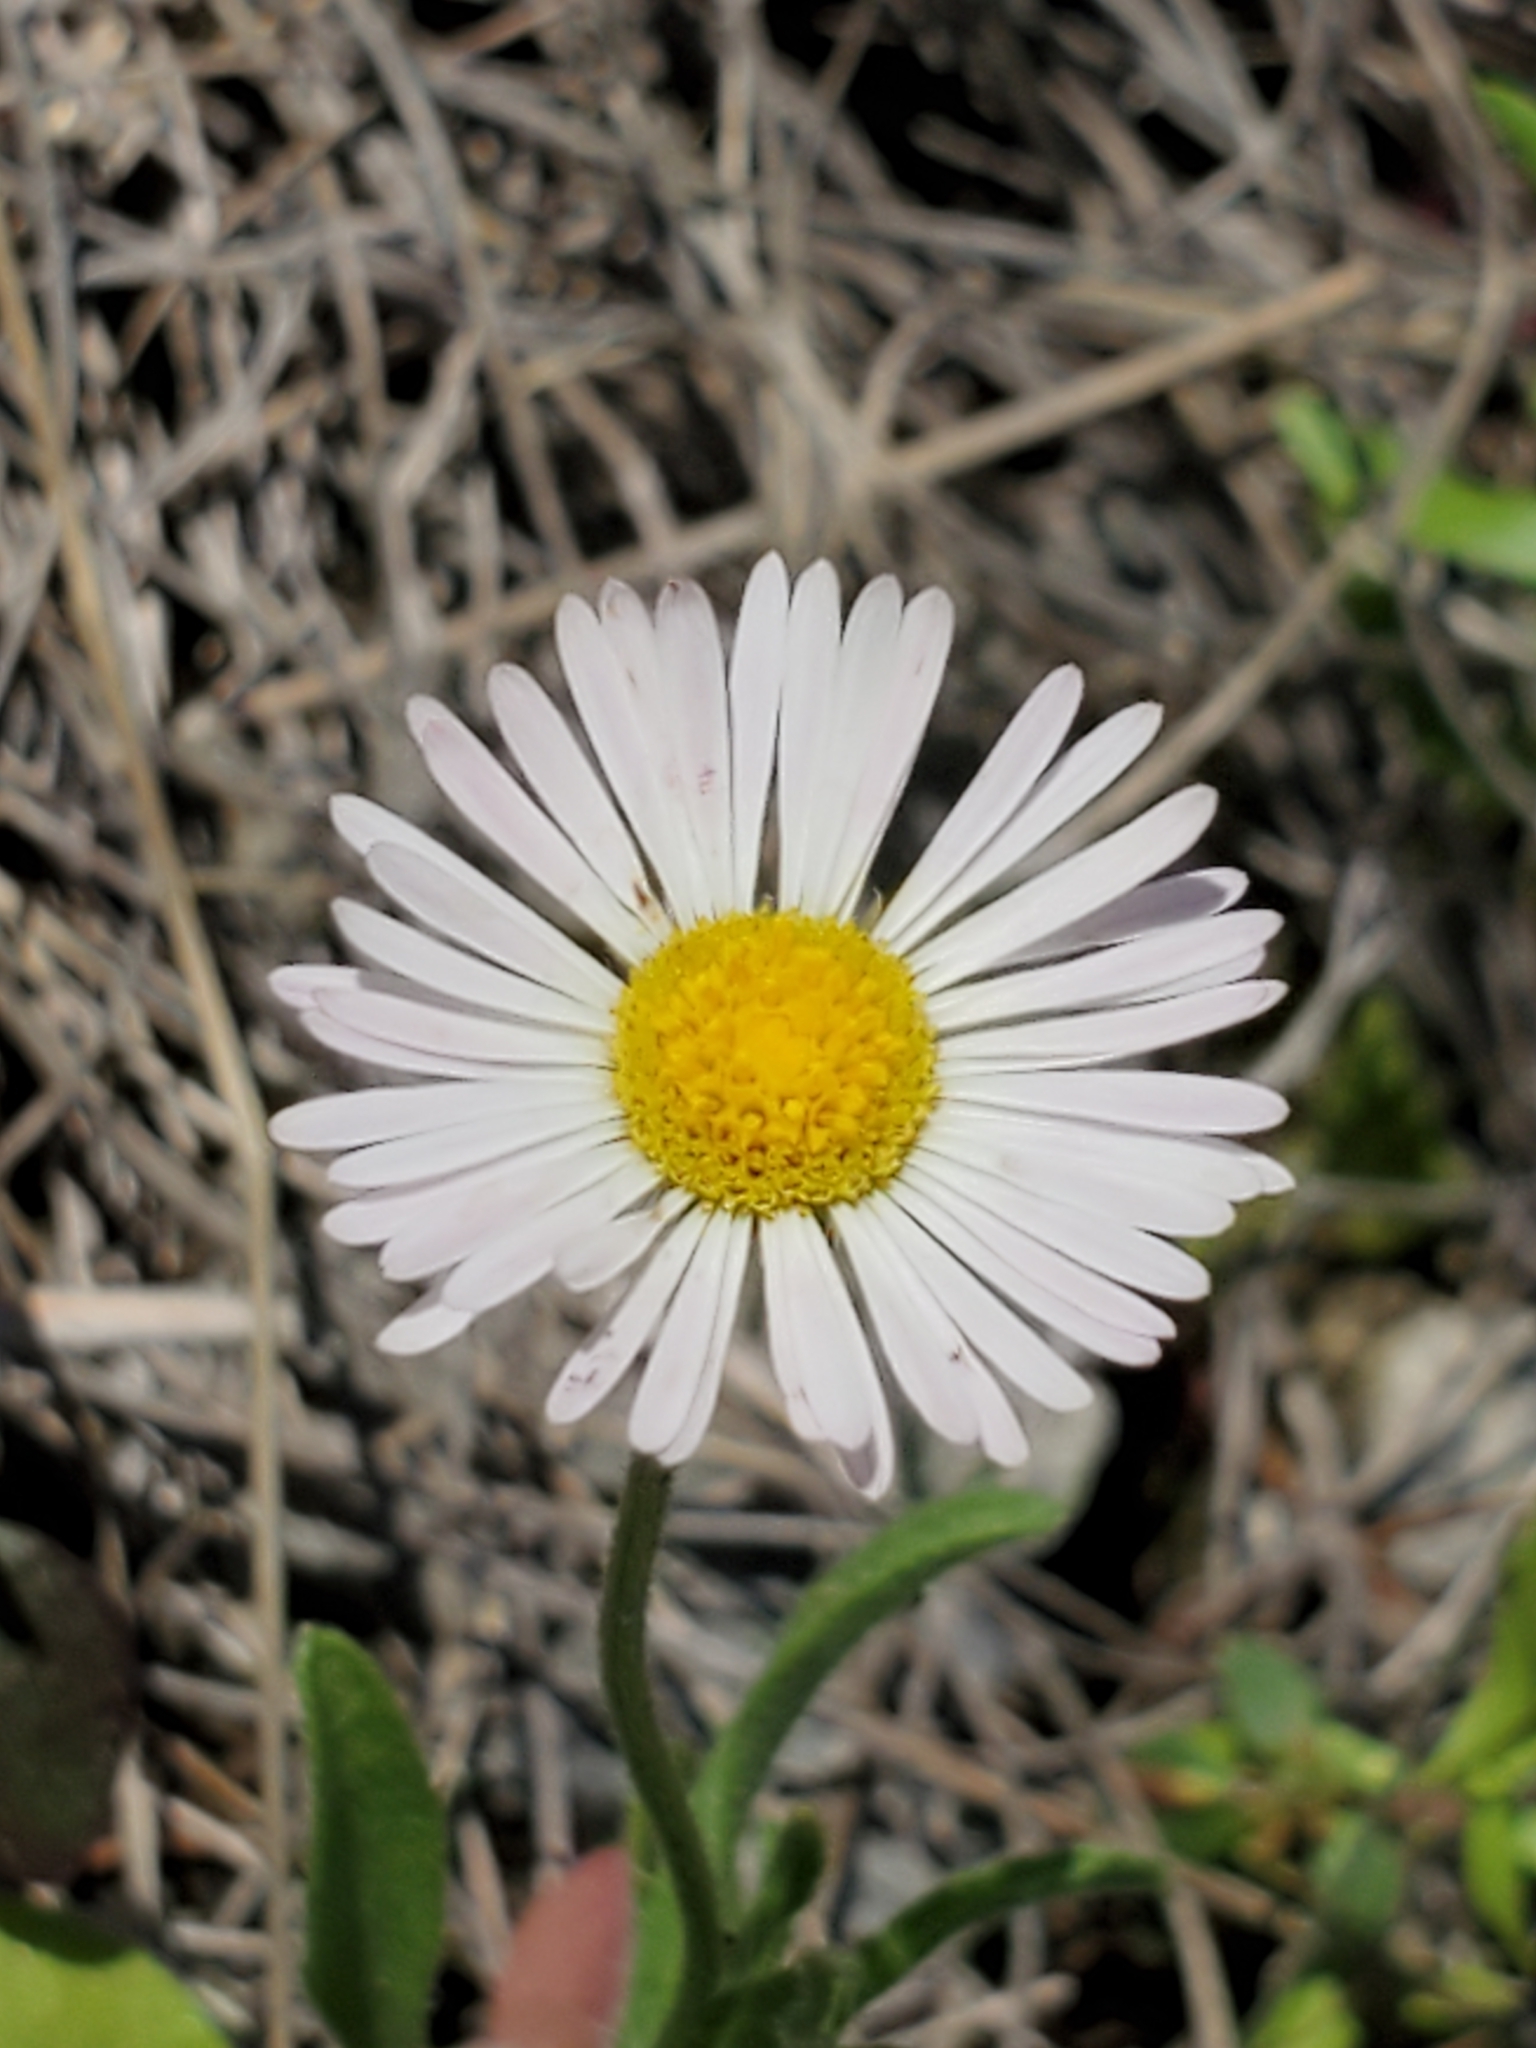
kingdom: Plantae
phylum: Tracheophyta
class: Magnoliopsida
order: Asterales
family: Asteraceae
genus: Aphanostephus
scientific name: Aphanostephus ramosissimus
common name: Plains lazy daisy
